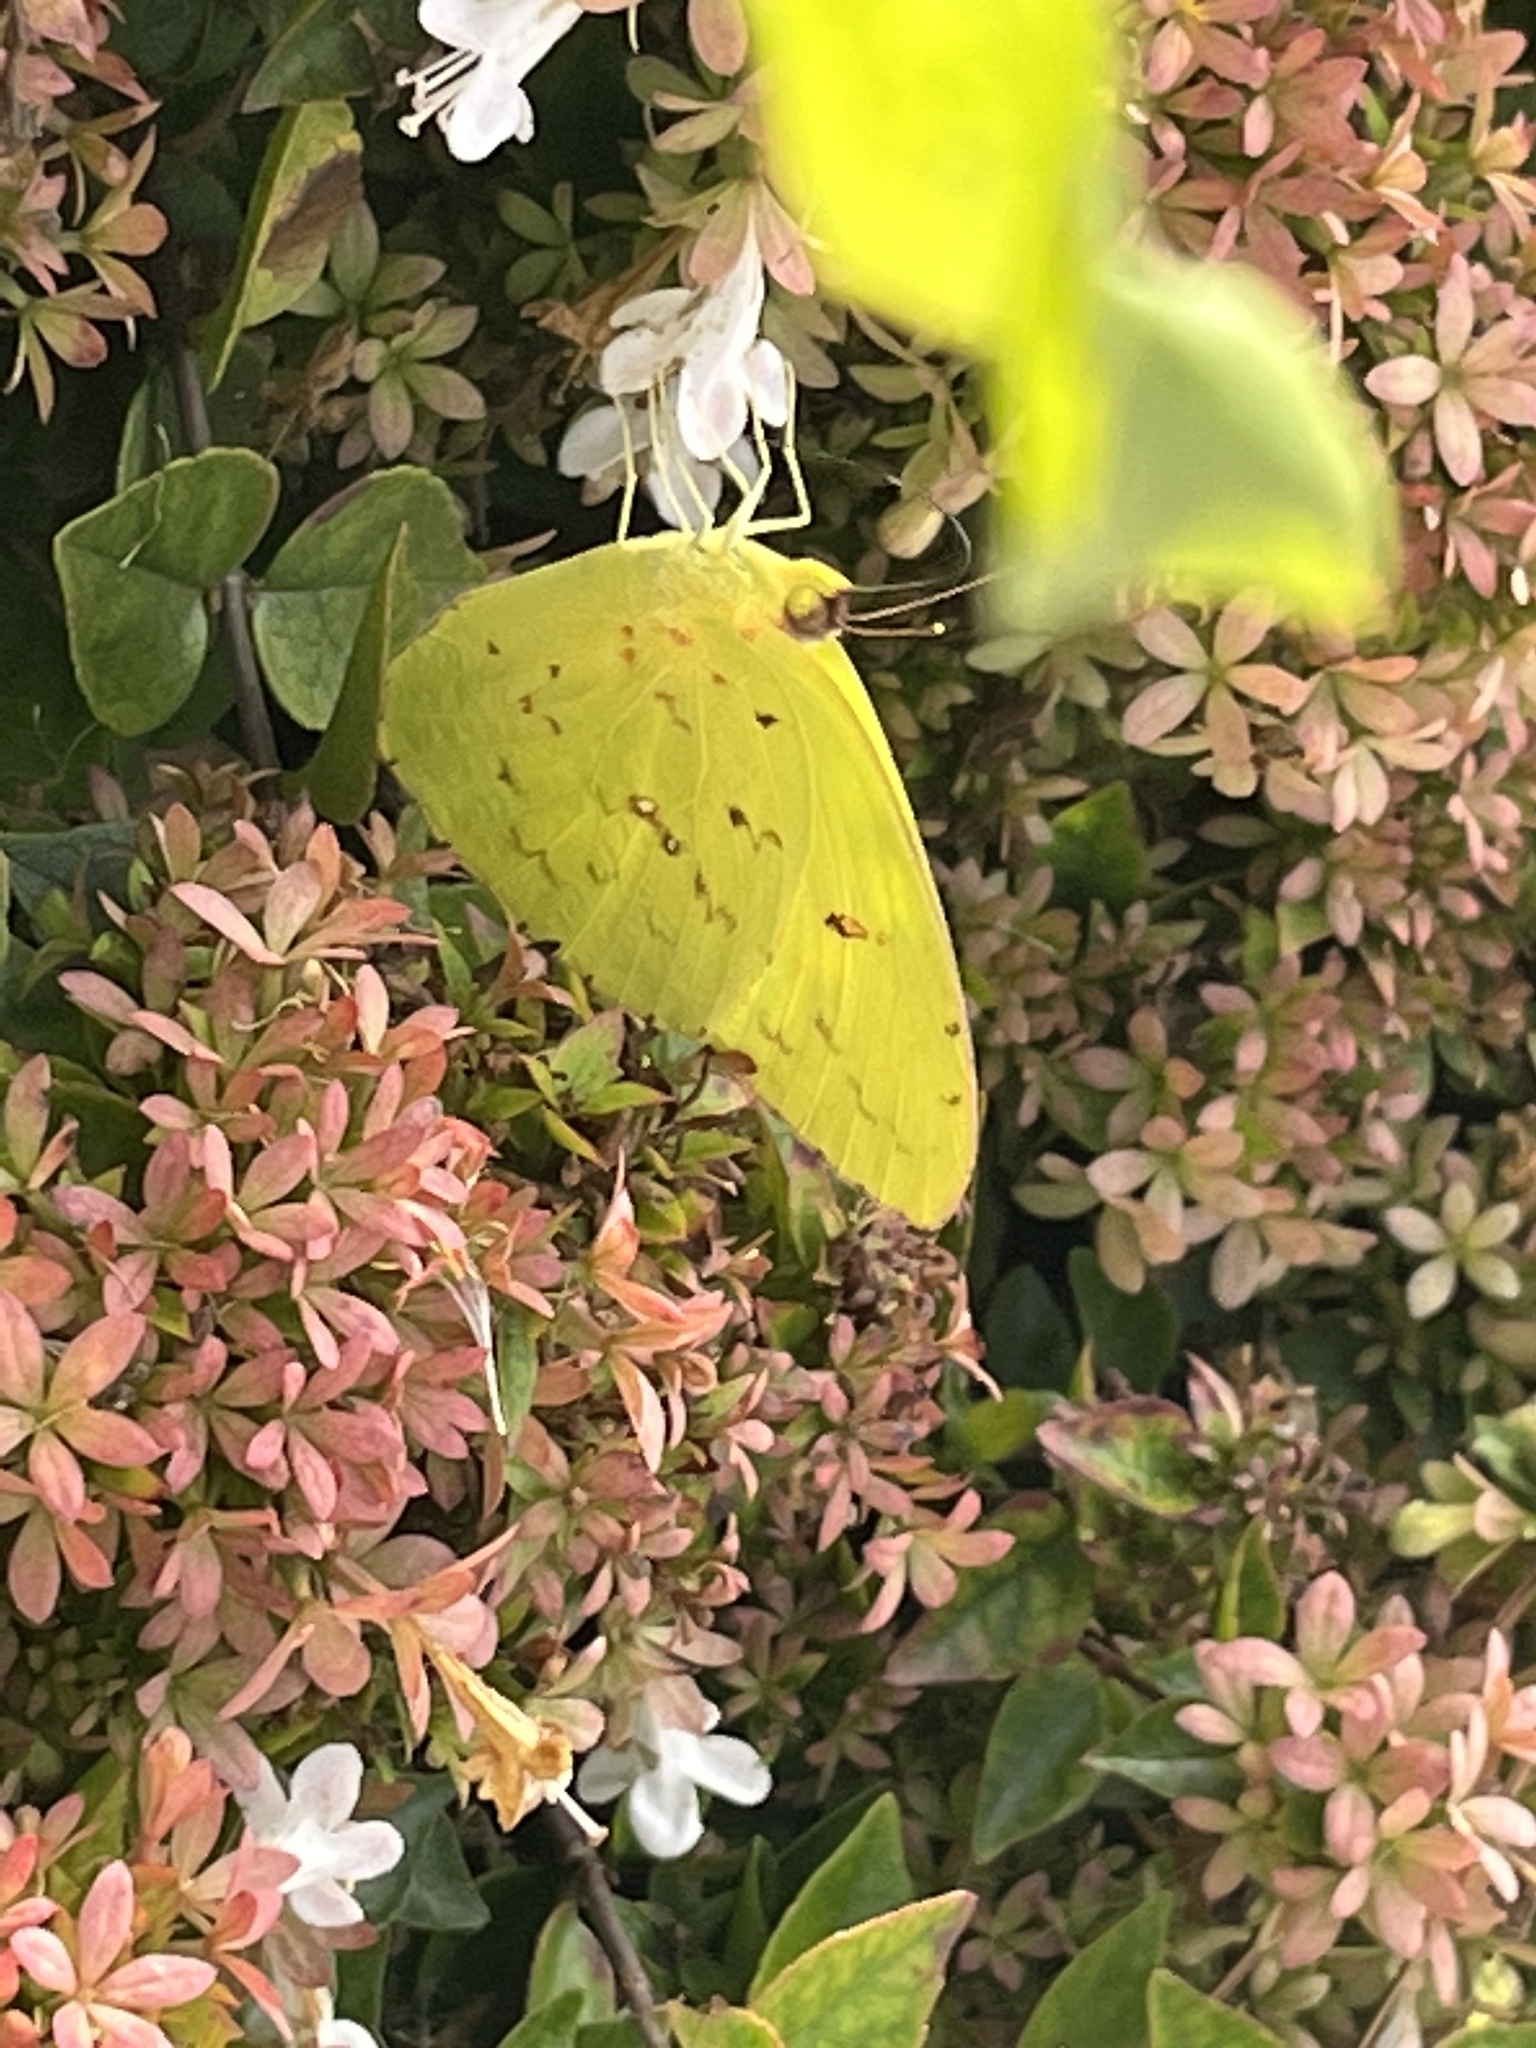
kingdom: Animalia
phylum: Arthropoda
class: Insecta
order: Lepidoptera
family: Pieridae
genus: Phoebis
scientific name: Phoebis sennae
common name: Cloudless sulphur
